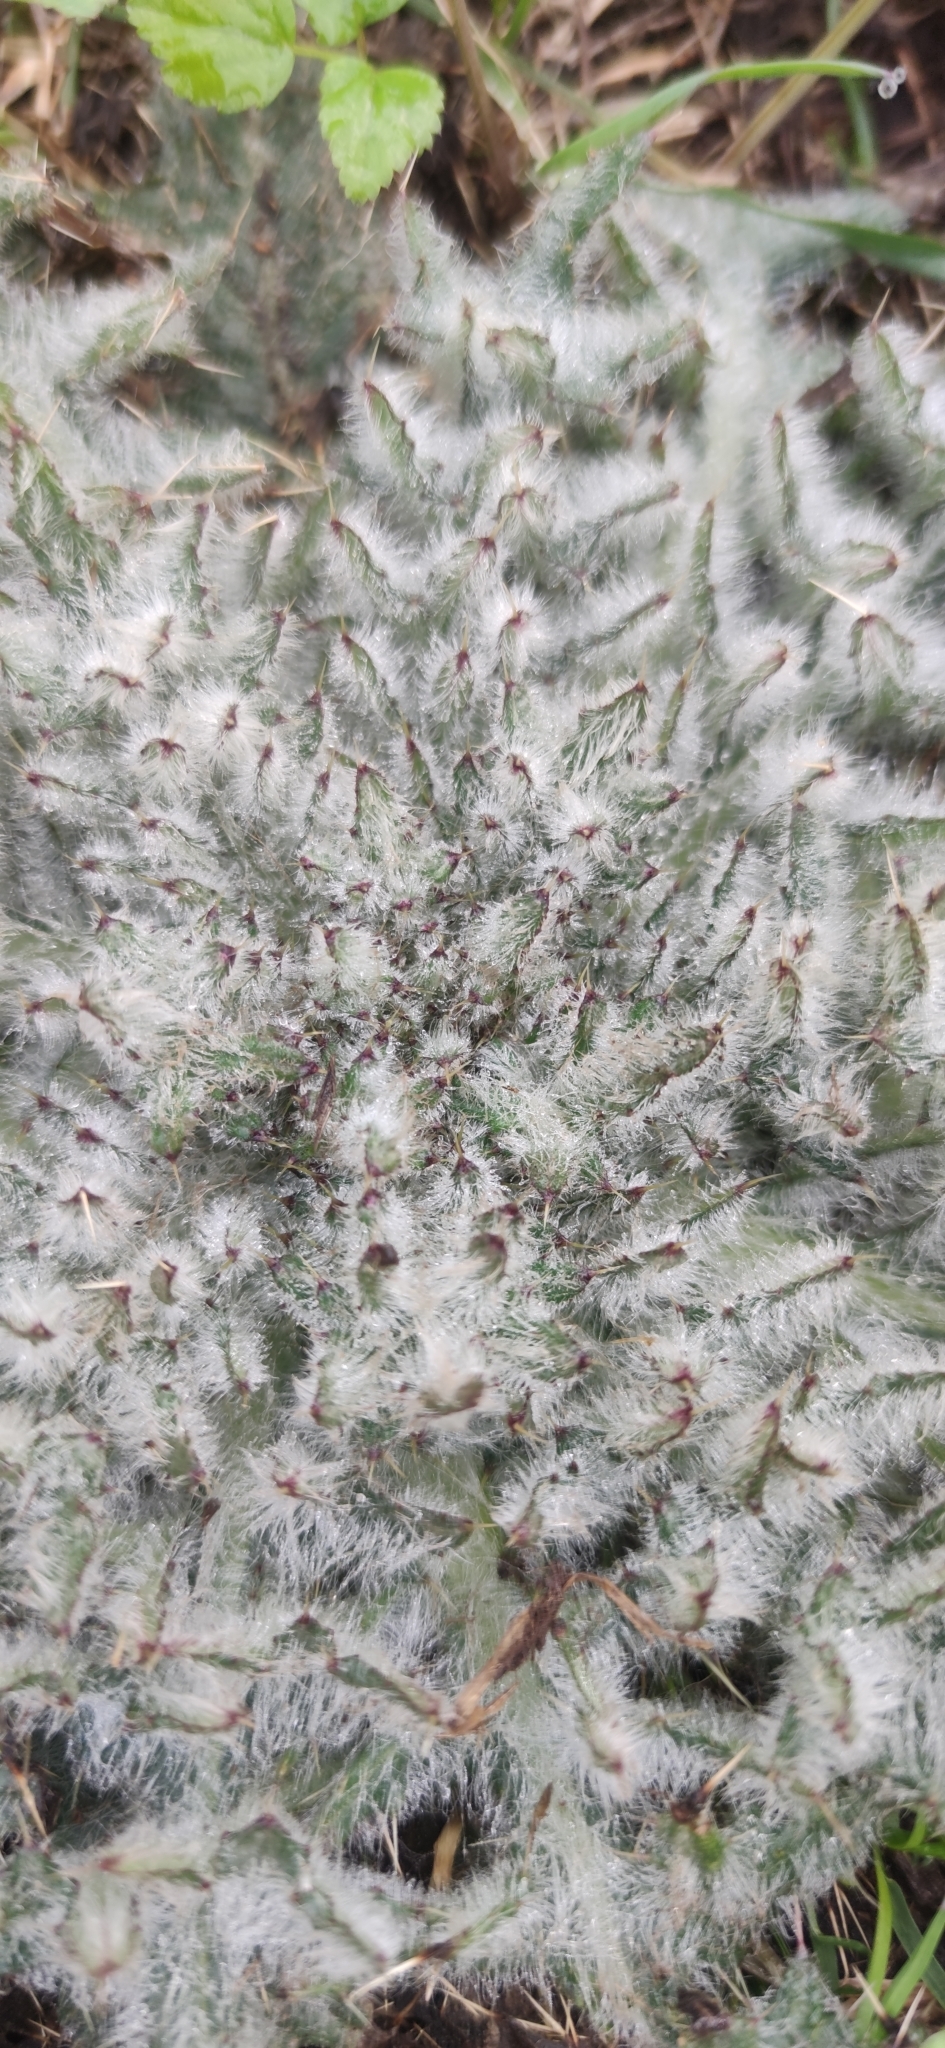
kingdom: Plantae
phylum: Tracheophyta
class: Magnoliopsida
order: Asterales
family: Asteraceae
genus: Cirsium
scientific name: Cirsium vulgare
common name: Bull thistle
